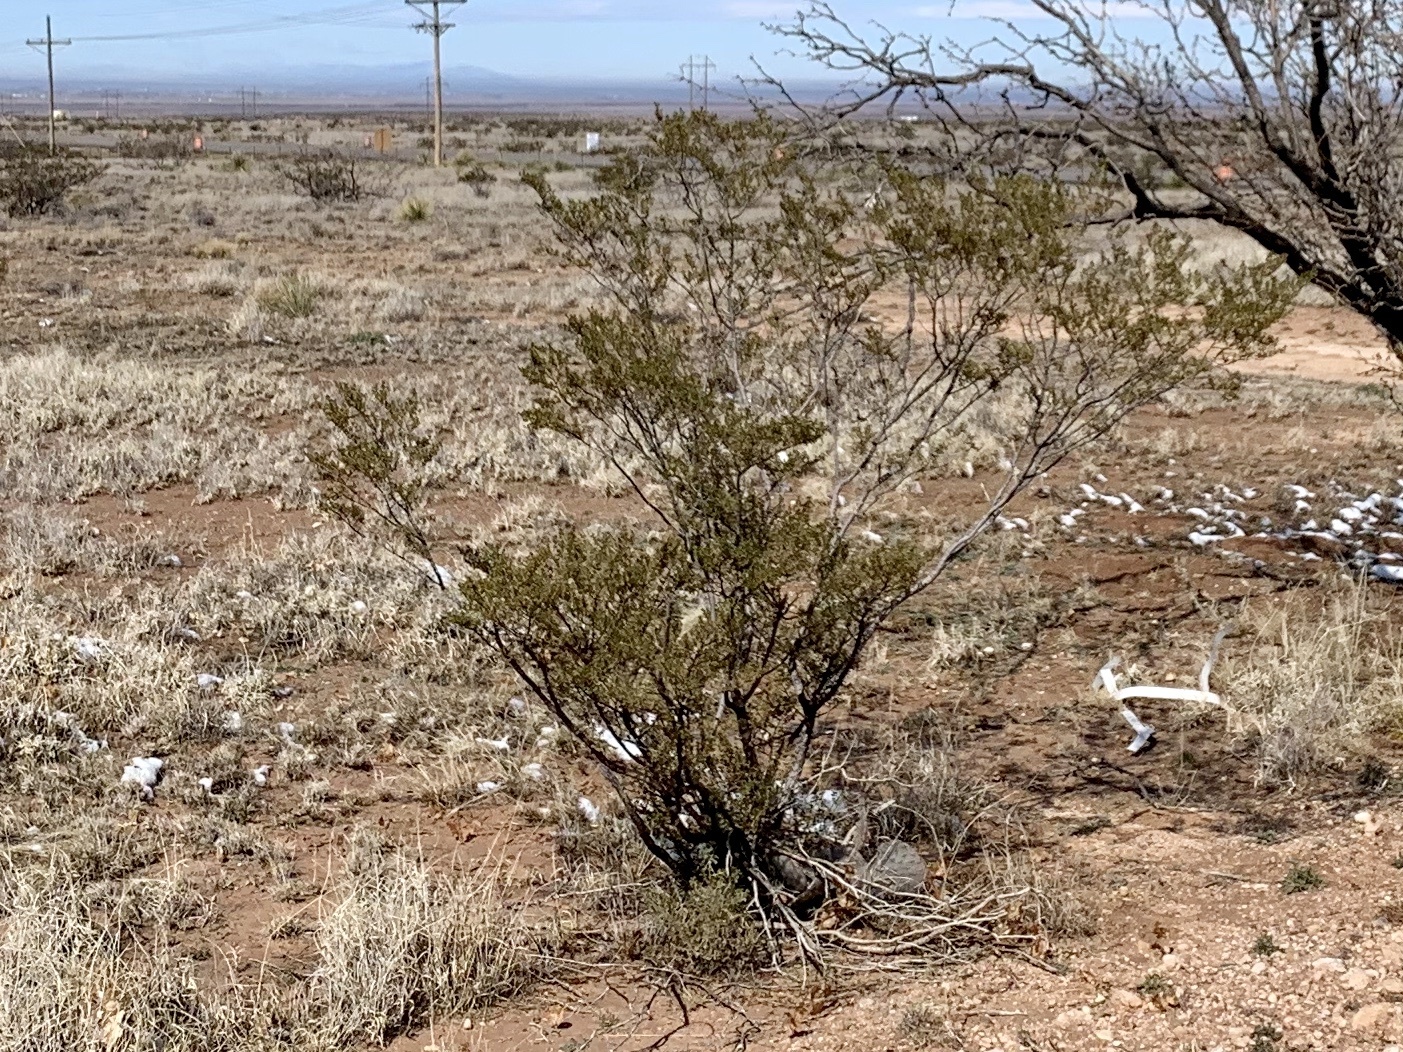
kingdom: Plantae
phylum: Tracheophyta
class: Magnoliopsida
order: Zygophyllales
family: Zygophyllaceae
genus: Larrea
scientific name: Larrea tridentata
